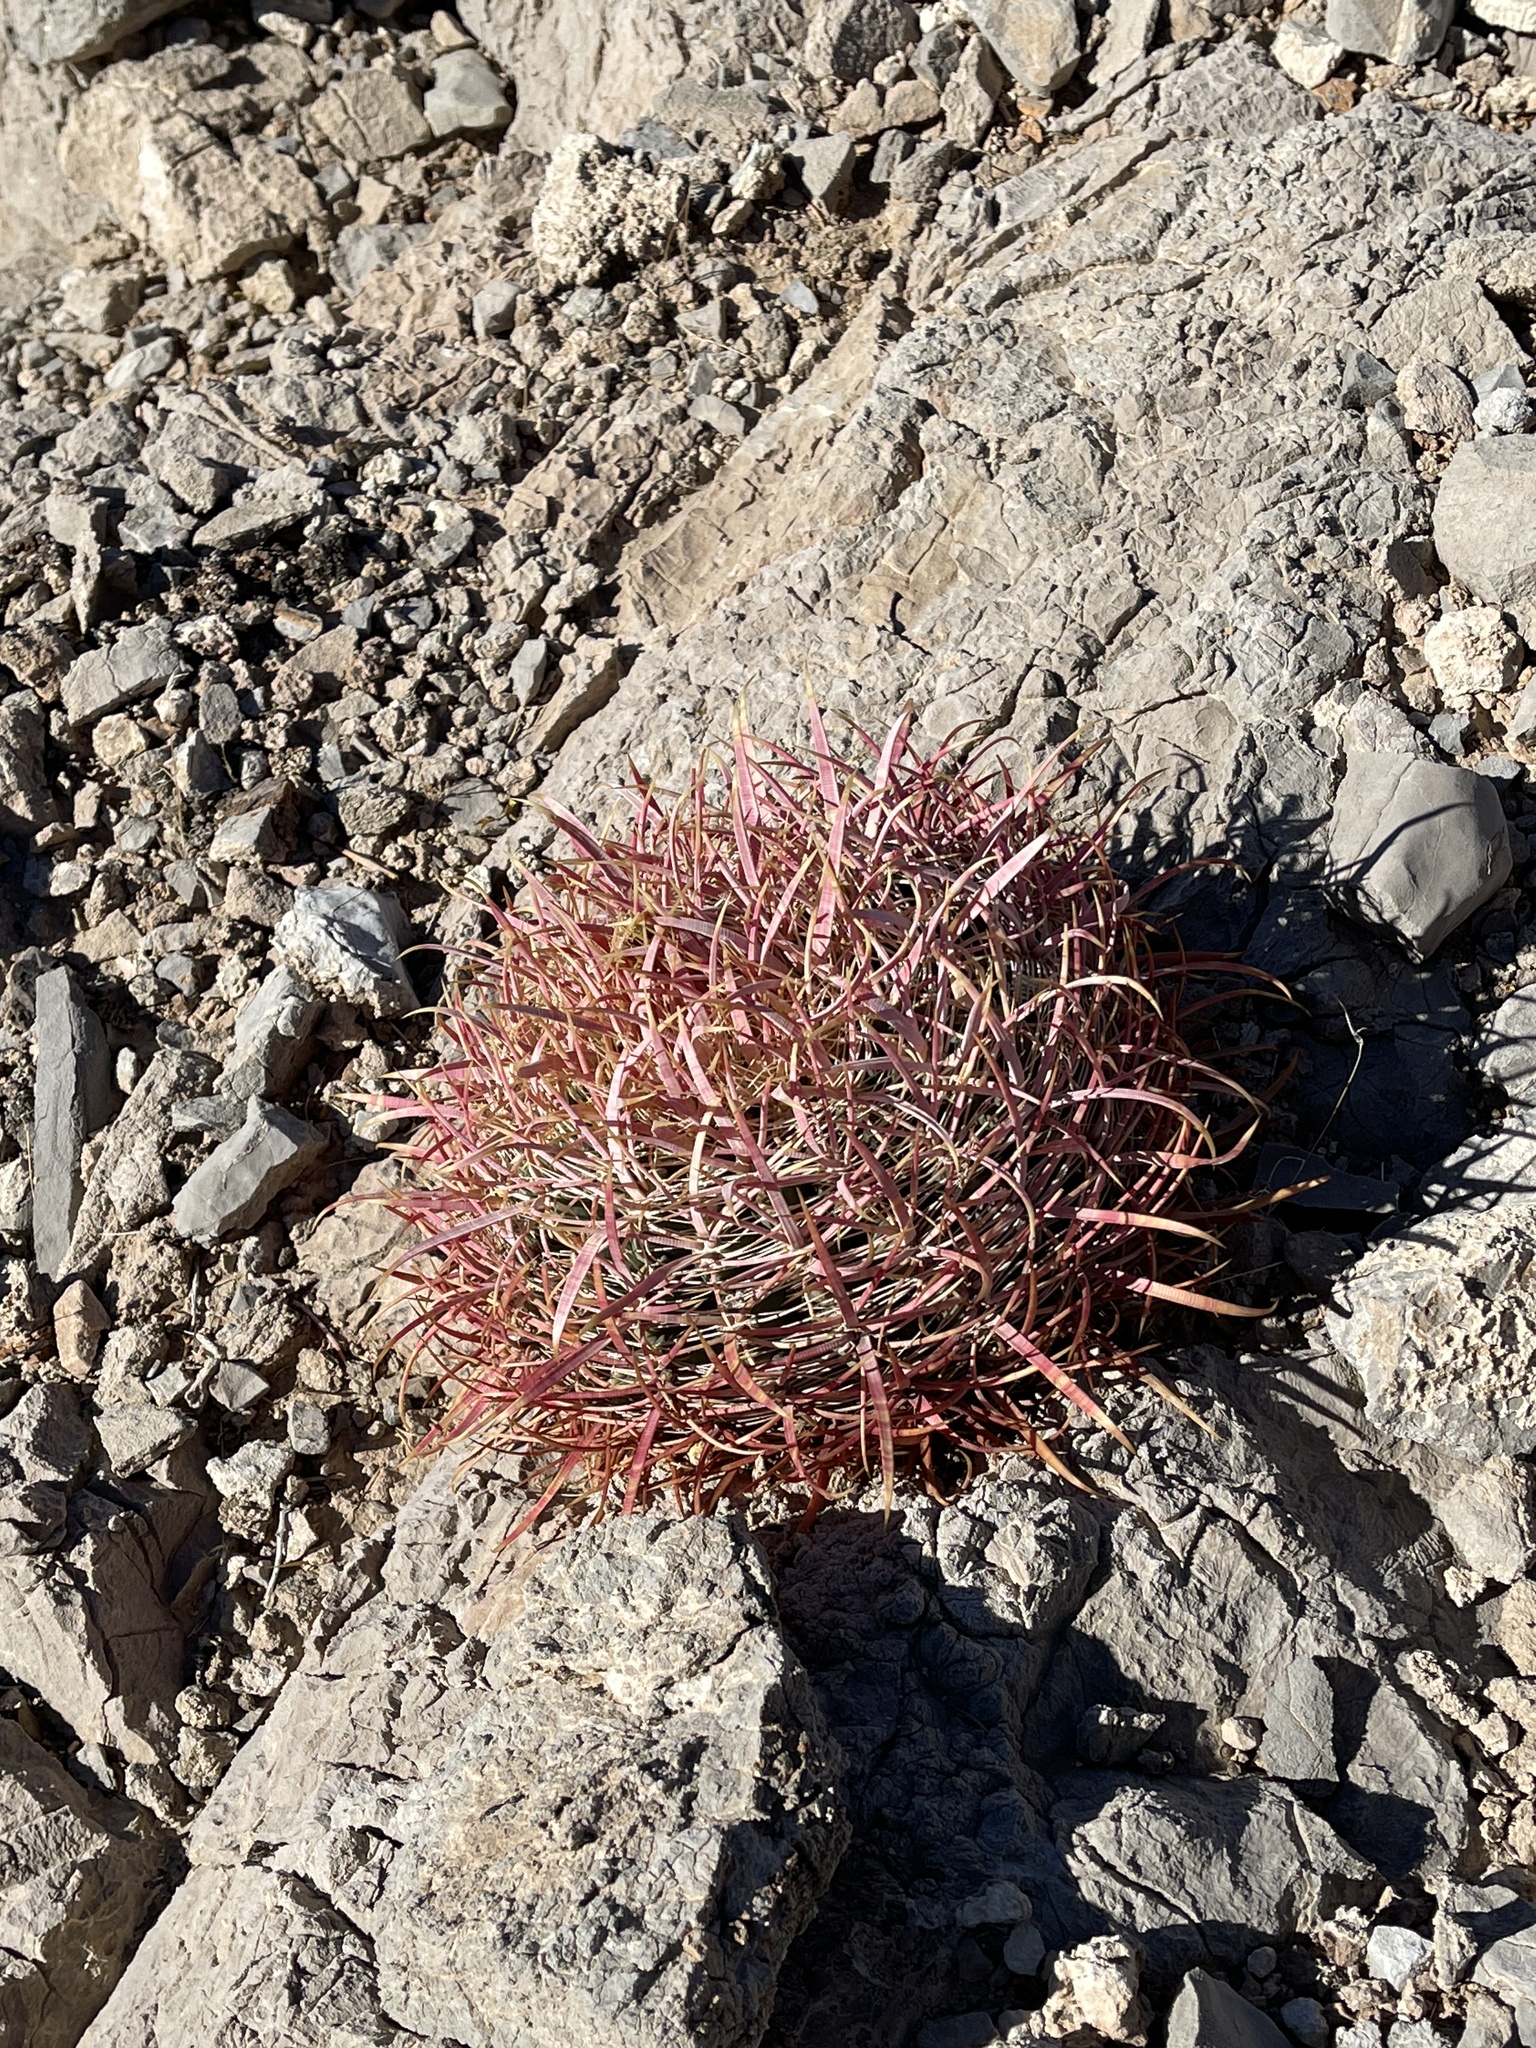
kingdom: Plantae
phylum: Tracheophyta
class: Magnoliopsida
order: Caryophyllales
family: Cactaceae
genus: Ferocactus
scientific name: Ferocactus cylindraceus
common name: California barrel cactus
